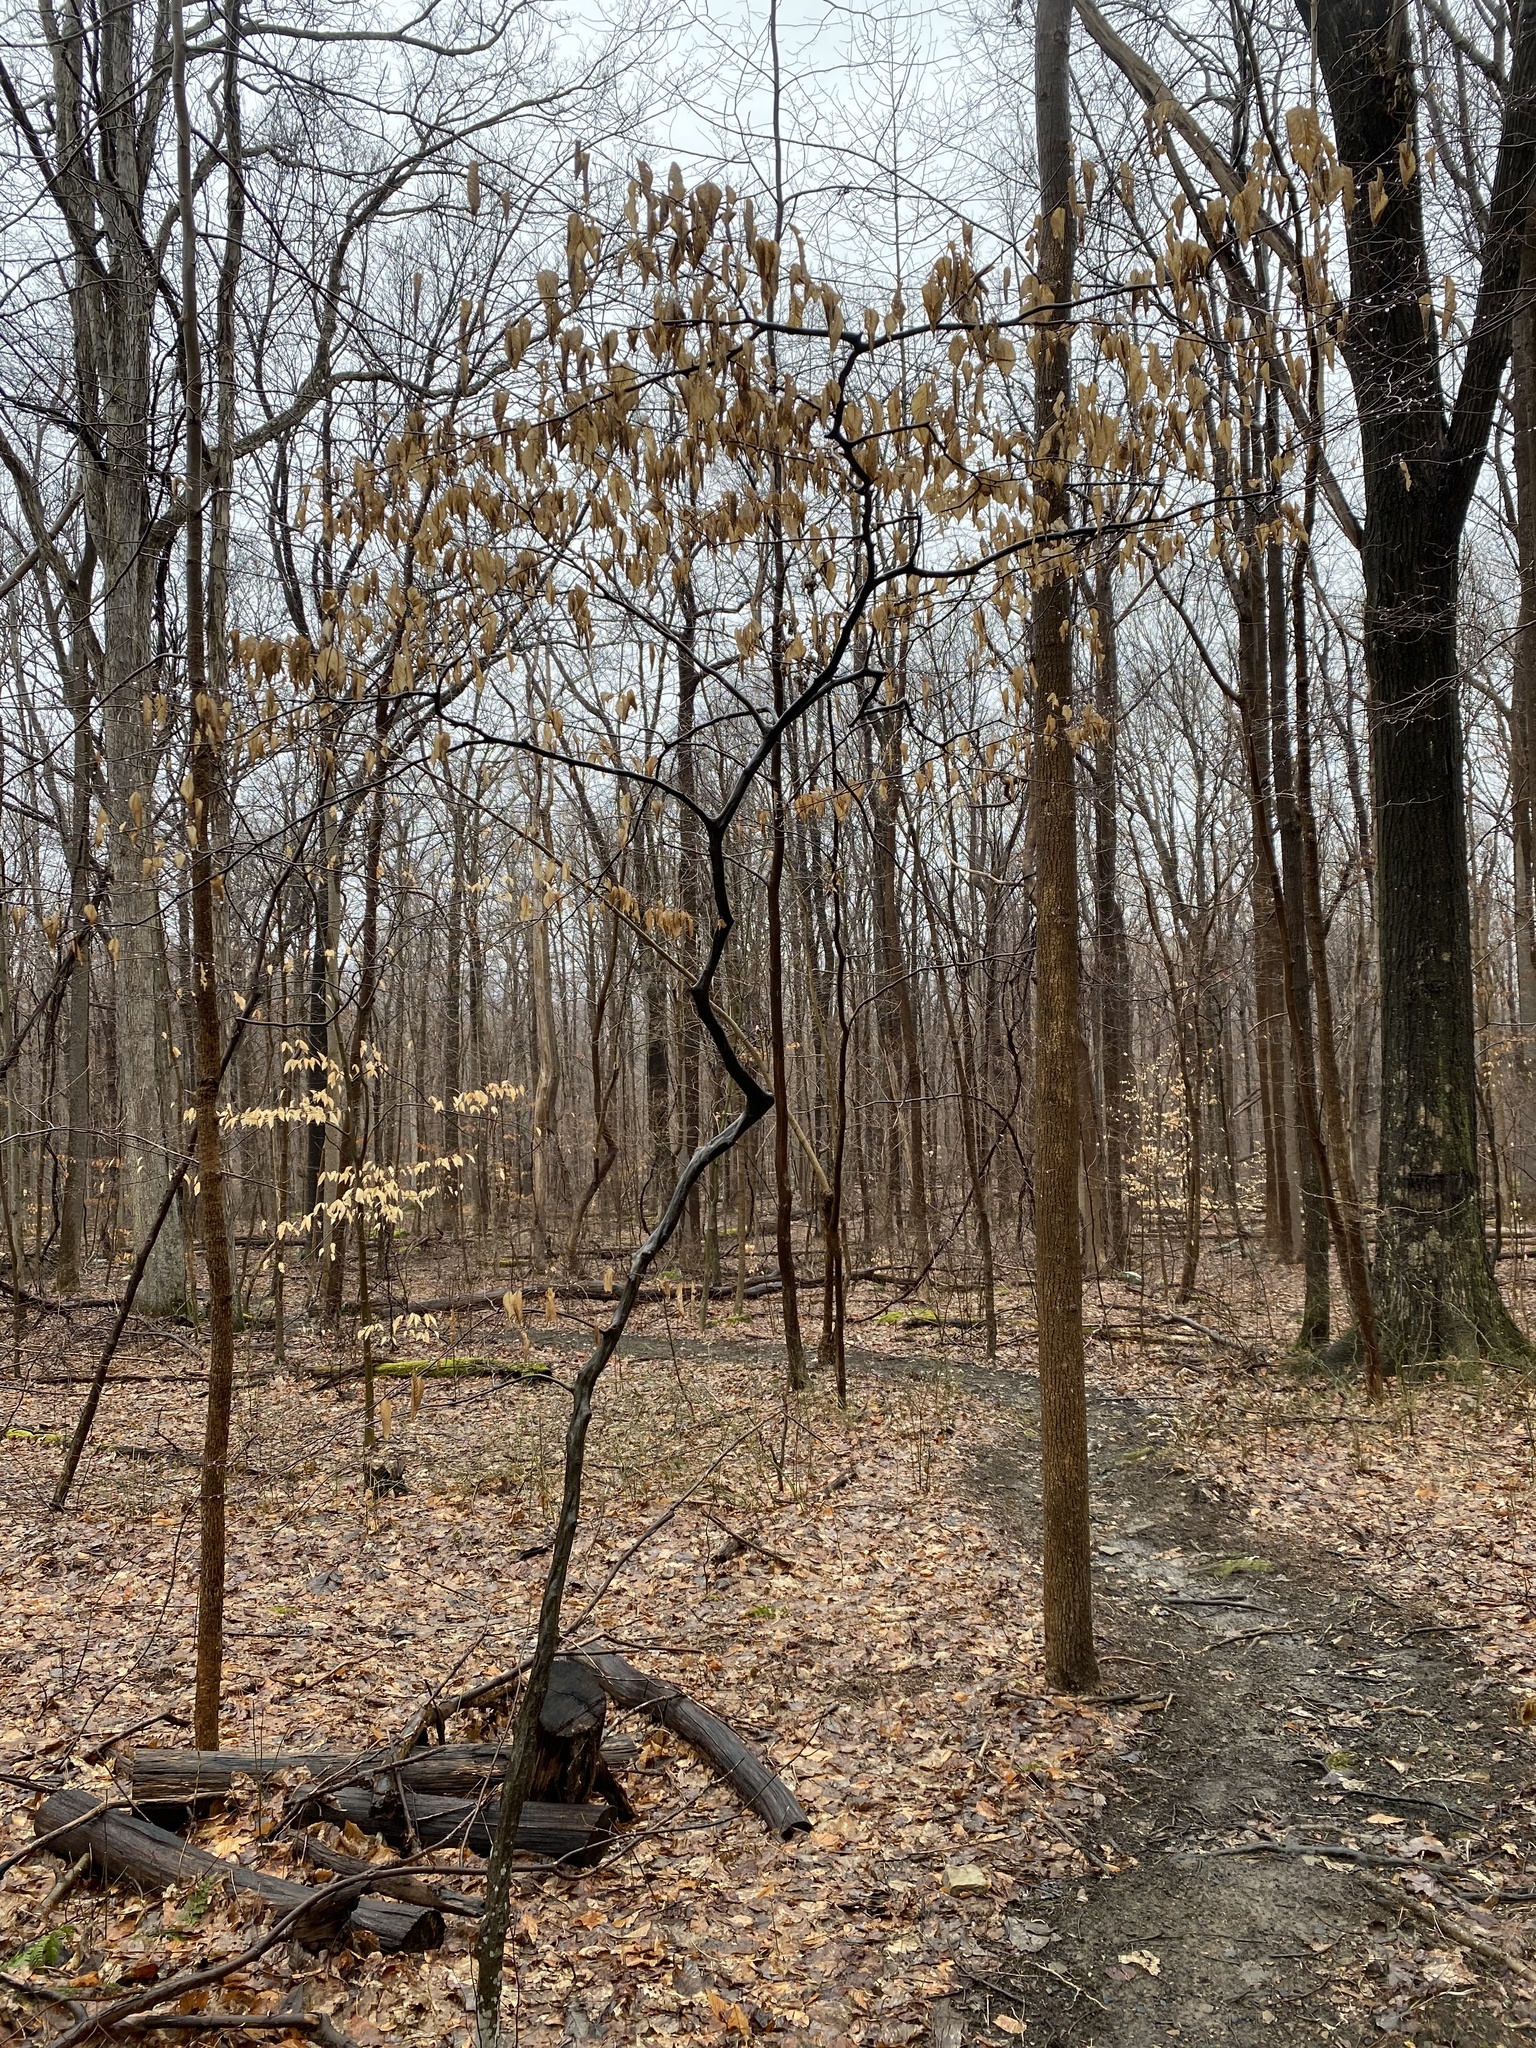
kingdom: Plantae
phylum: Tracheophyta
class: Magnoliopsida
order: Fagales
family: Betulaceae
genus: Carpinus
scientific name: Carpinus caroliniana
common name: American hornbeam
